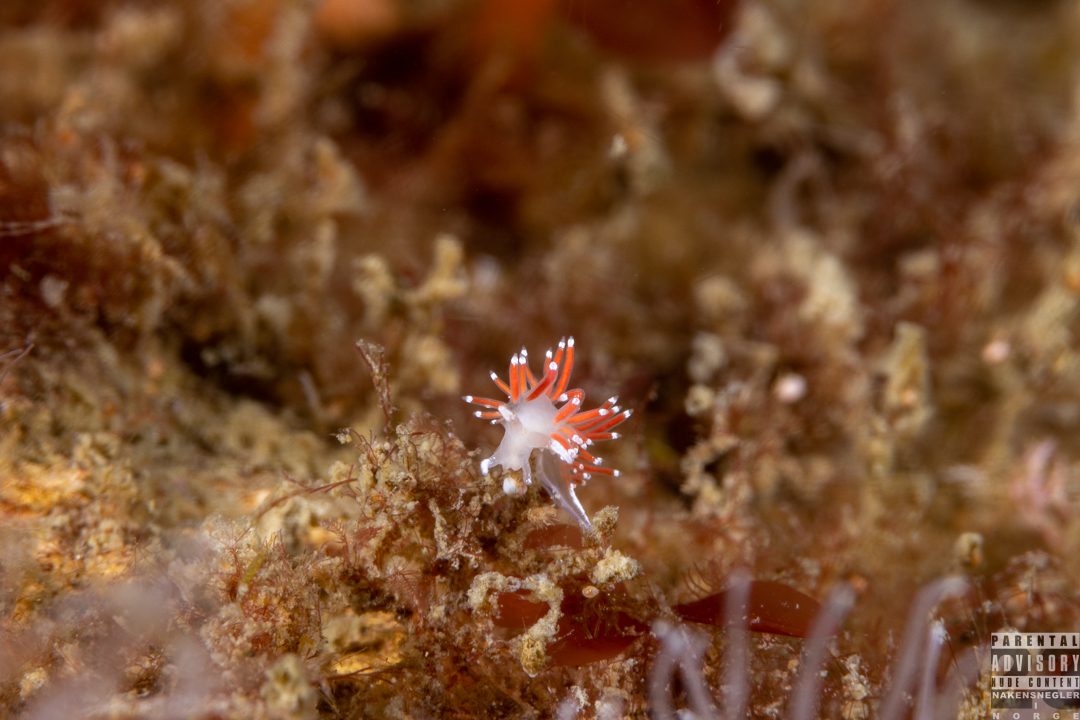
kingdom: Animalia
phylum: Mollusca
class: Gastropoda
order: Nudibranchia
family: Coryphellidae
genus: Coryphella
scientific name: Coryphella gracilis
